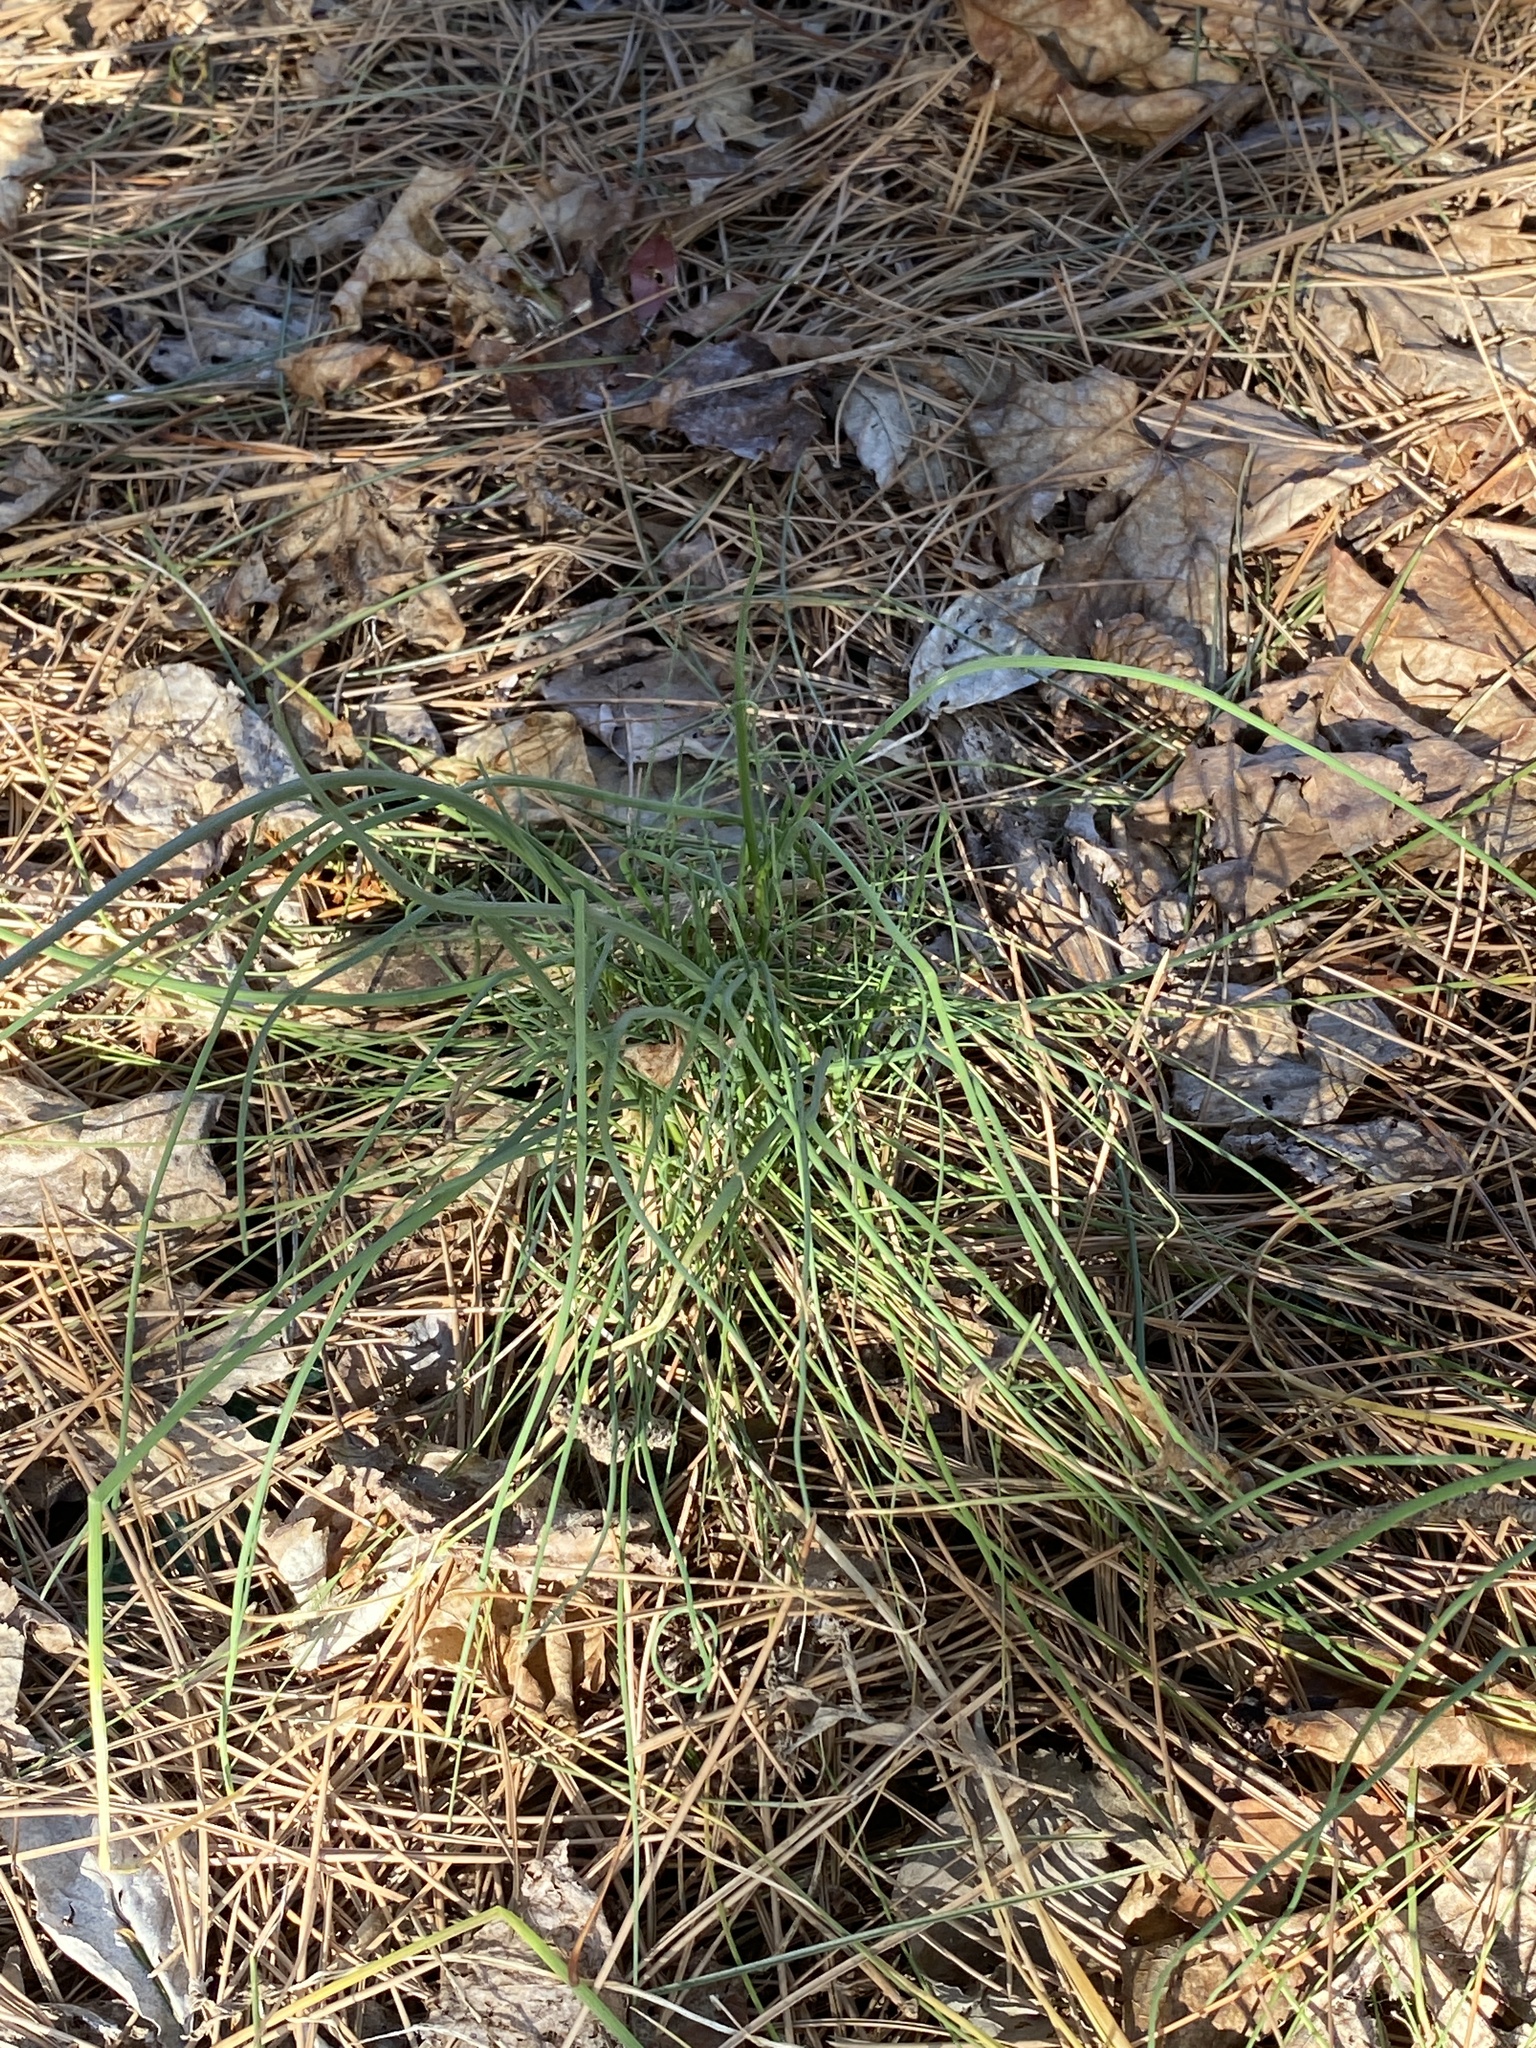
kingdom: Plantae
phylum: Tracheophyta
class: Liliopsida
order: Asparagales
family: Amaryllidaceae
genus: Allium
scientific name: Allium vineale
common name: Crow garlic
